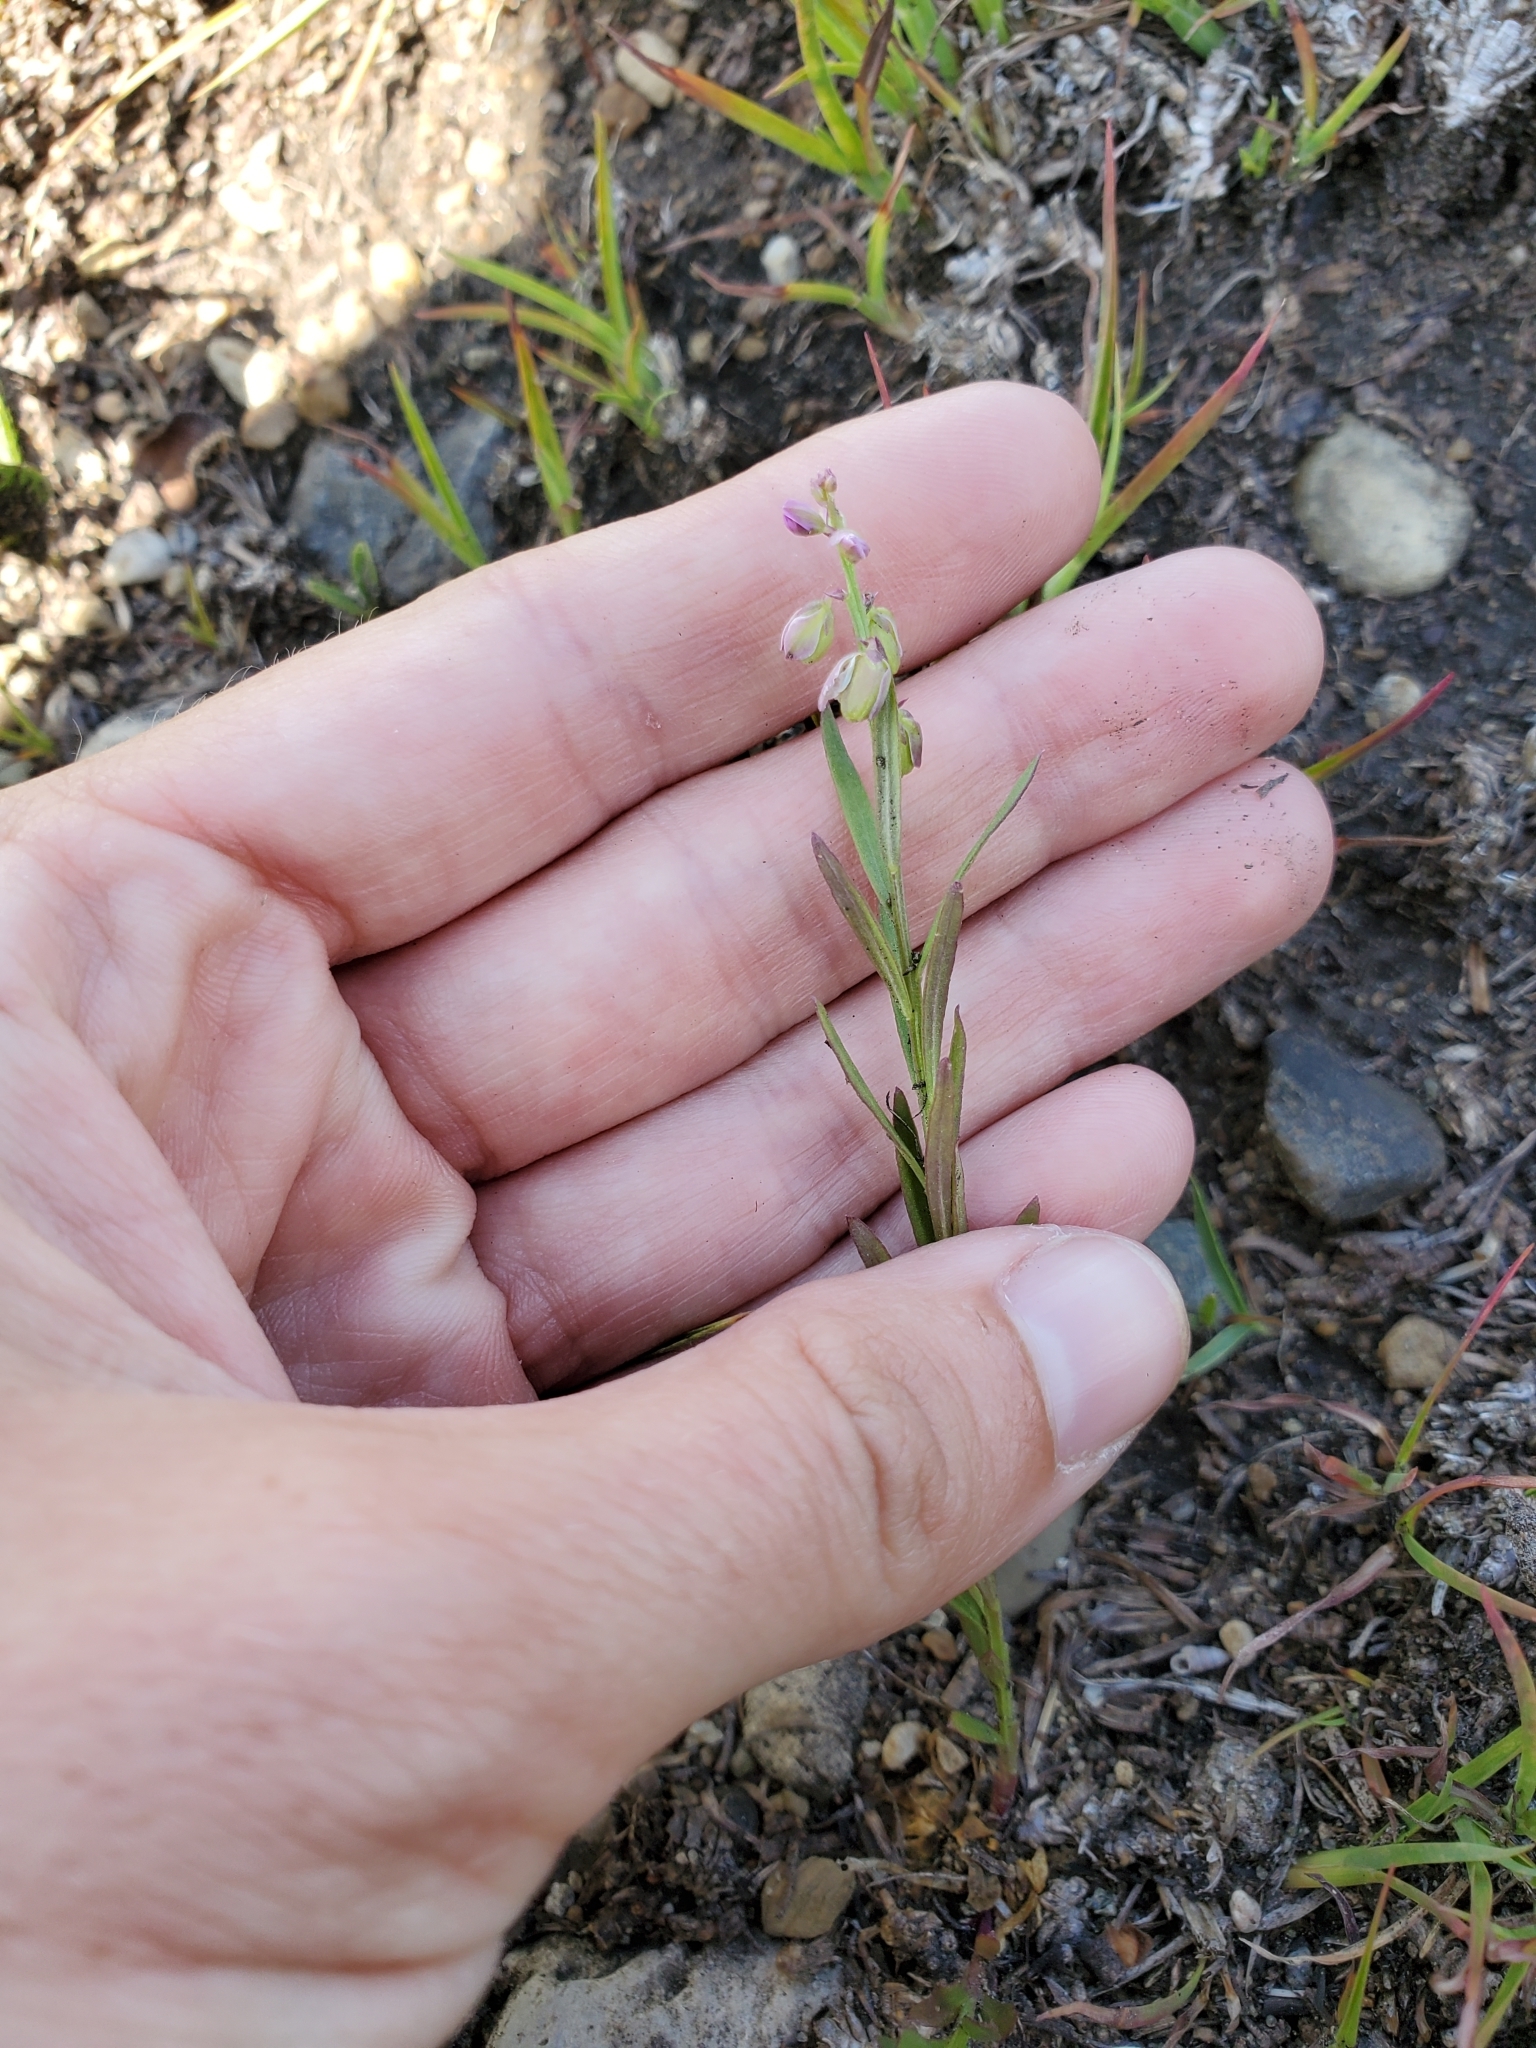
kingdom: Plantae
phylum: Tracheophyta
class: Magnoliopsida
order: Fabales
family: Polygalaceae
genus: Polygala
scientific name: Polygala polygama
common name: Bitter milkwort
